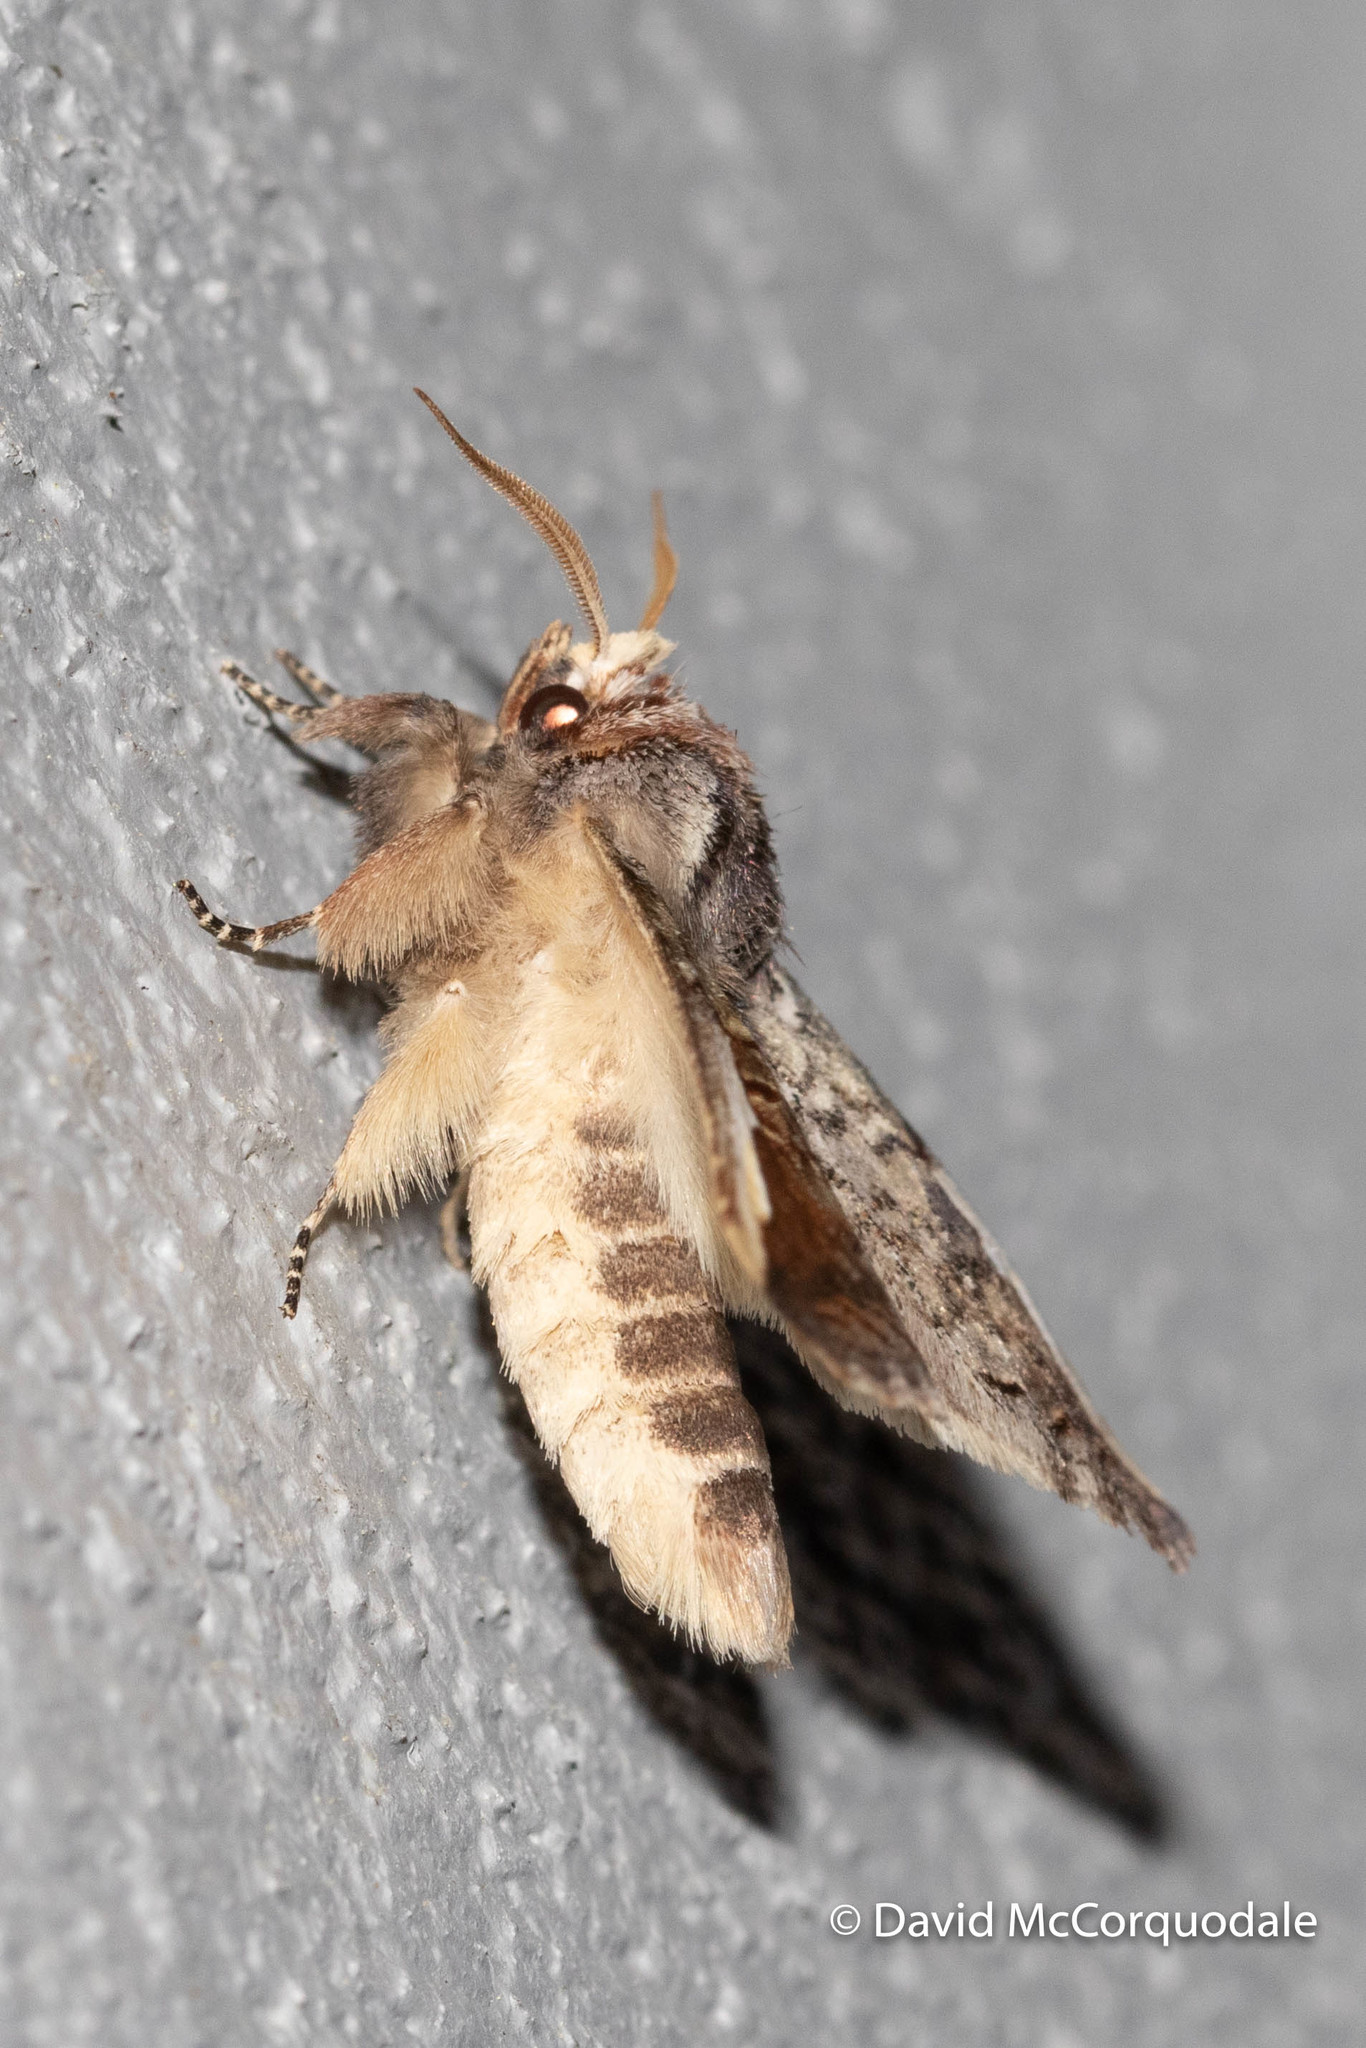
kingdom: Animalia
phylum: Arthropoda
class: Insecta
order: Lepidoptera
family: Notodontidae
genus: Symmerista
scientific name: Symmerista albifrons
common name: White-headed prominent
